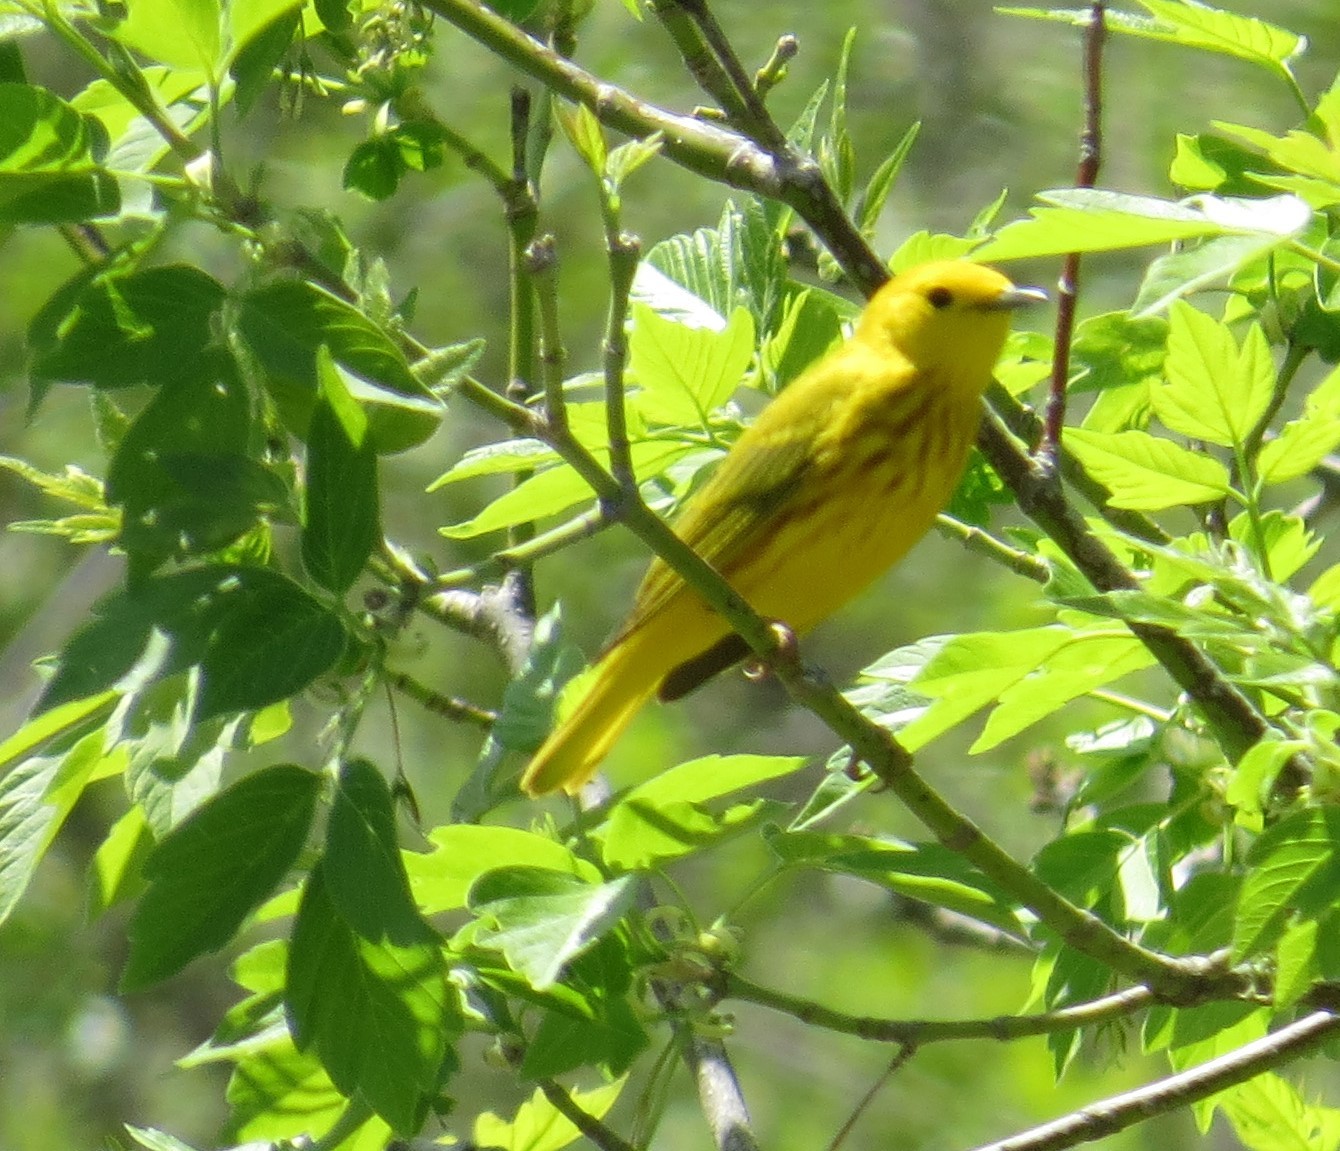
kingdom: Animalia
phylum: Chordata
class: Aves
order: Passeriformes
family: Parulidae
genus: Setophaga
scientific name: Setophaga petechia
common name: Yellow warbler
